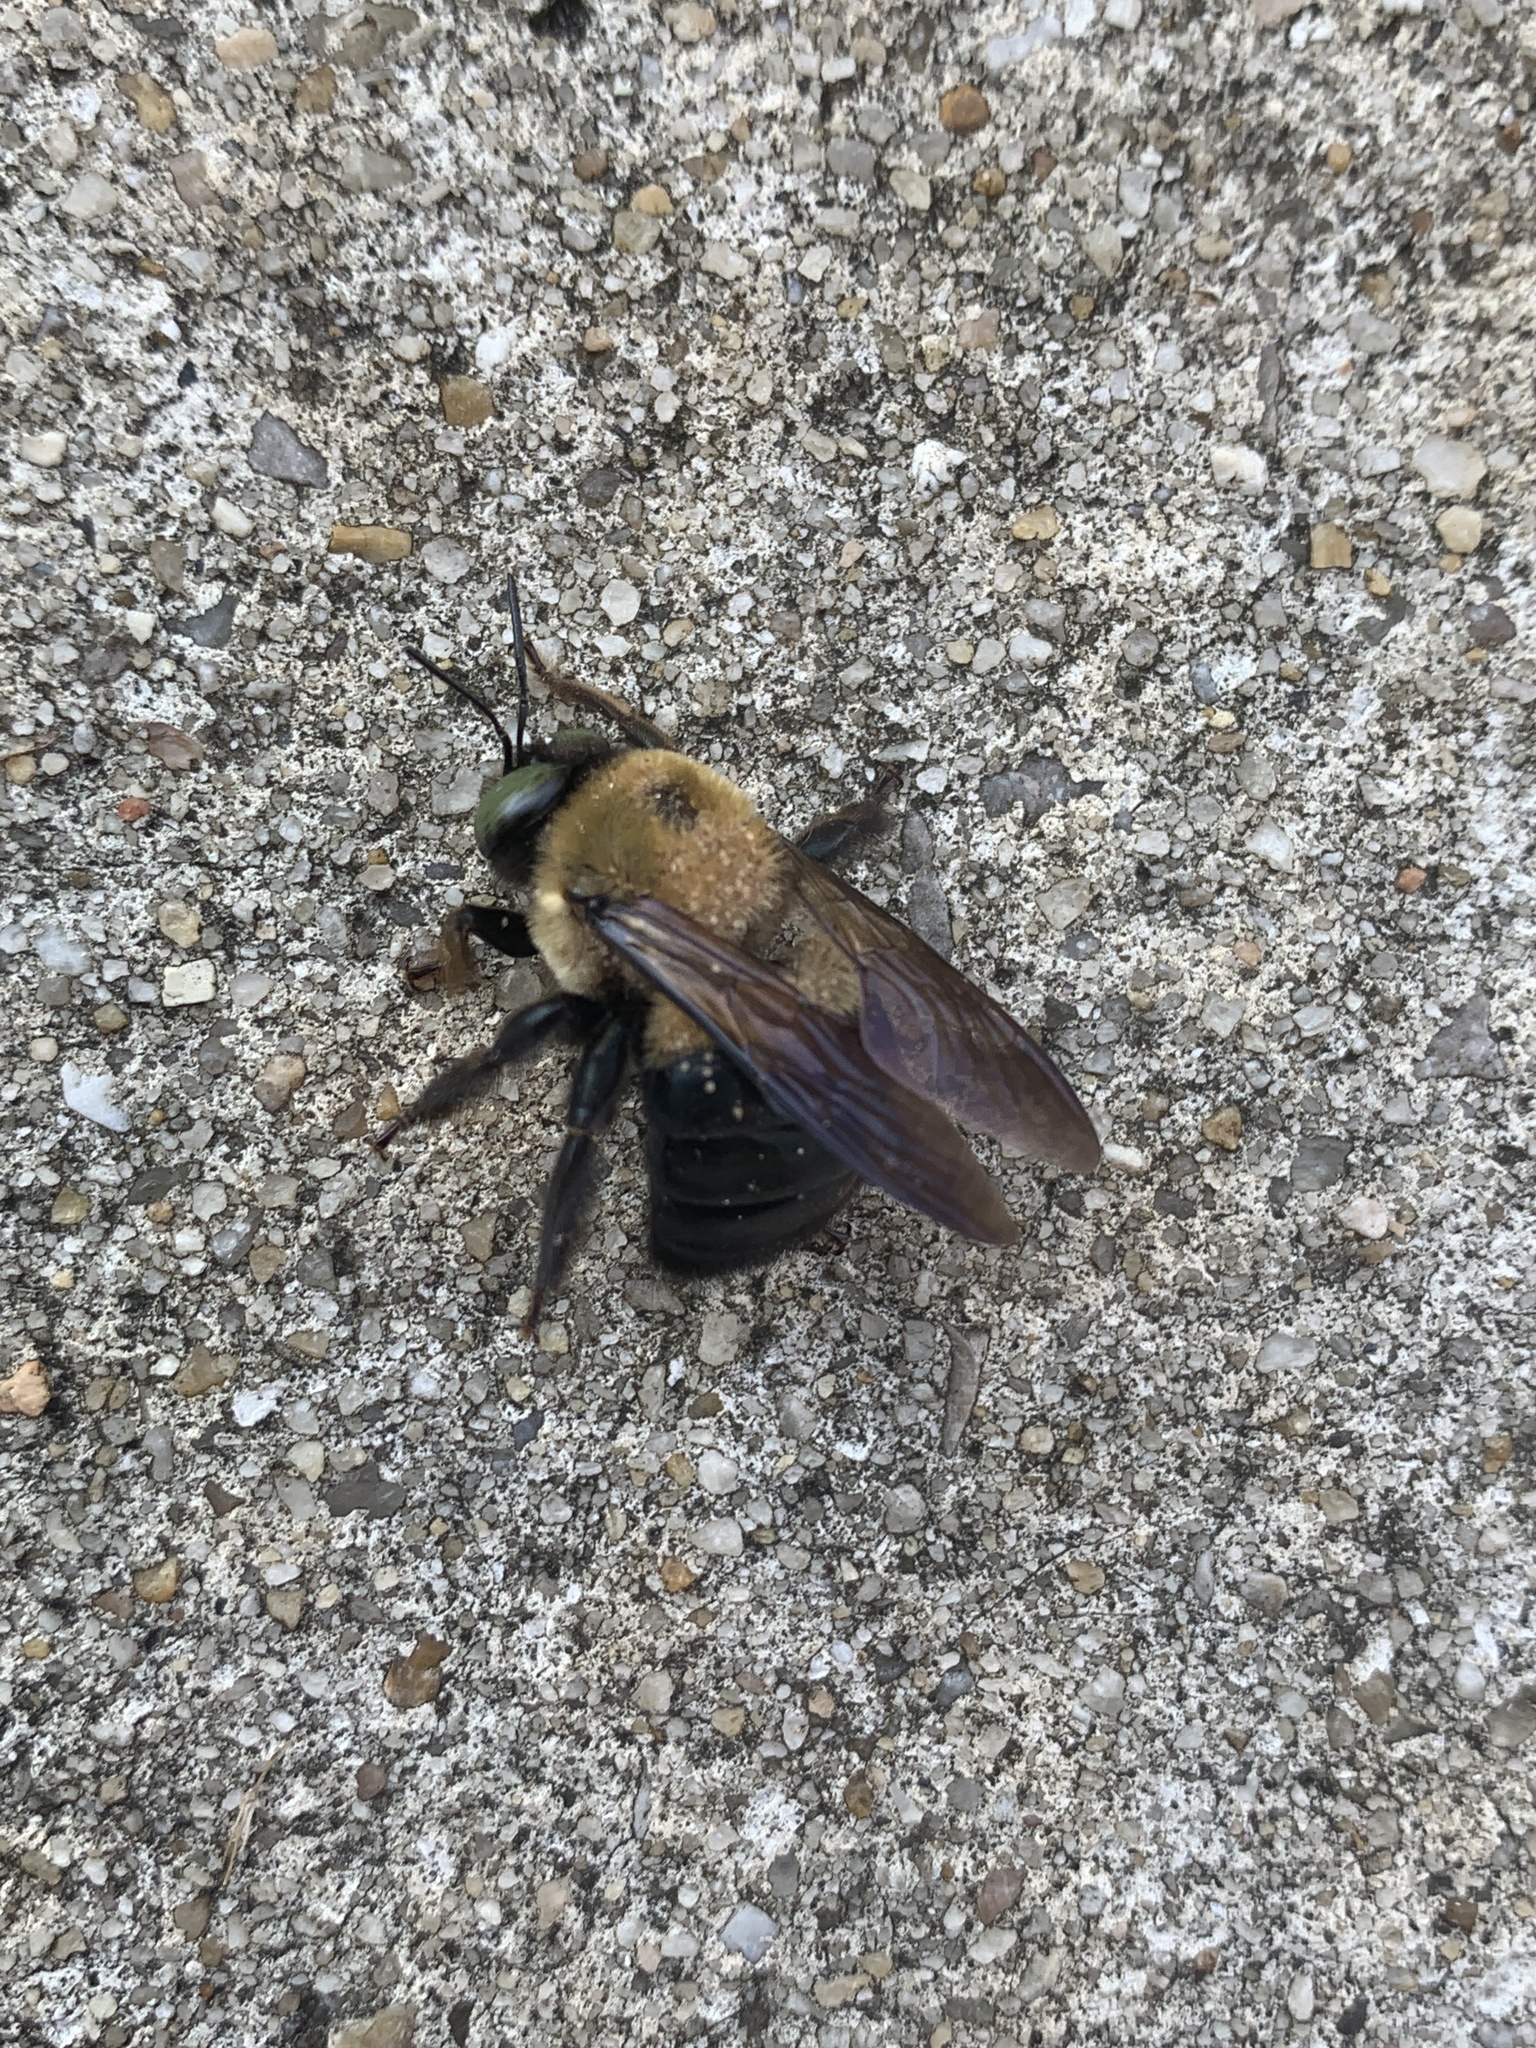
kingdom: Animalia
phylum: Arthropoda
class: Insecta
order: Hymenoptera
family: Apidae
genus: Xylocopa
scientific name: Xylocopa virginica
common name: Carpenter bee
